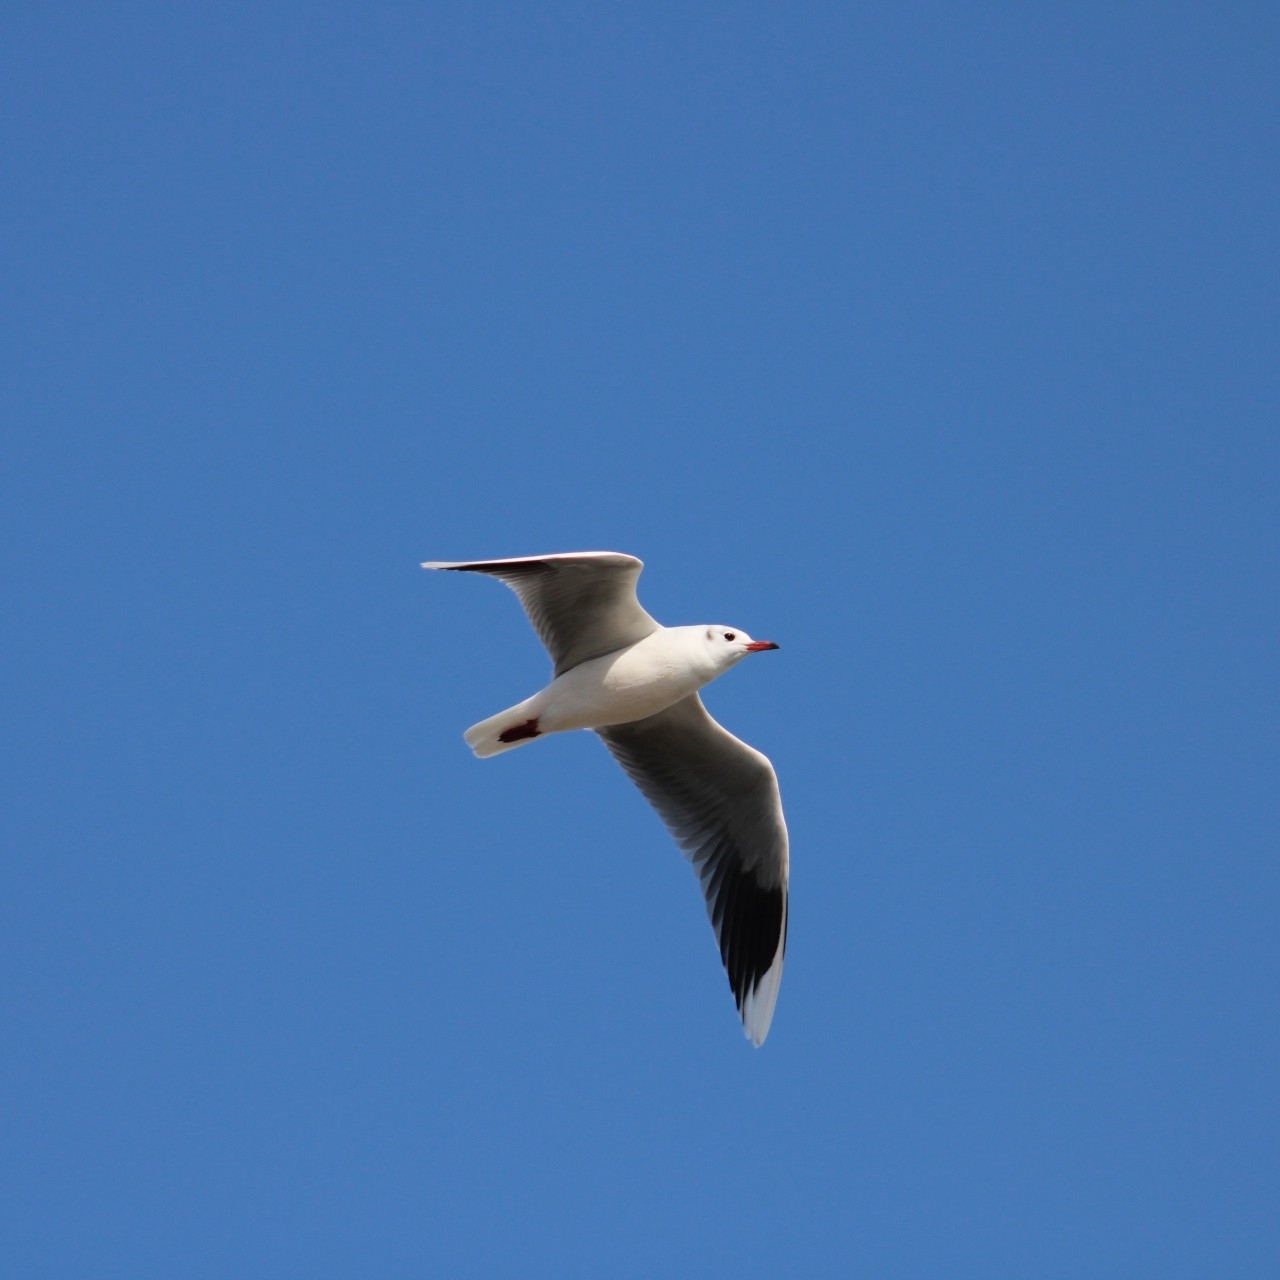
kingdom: Animalia
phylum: Chordata
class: Aves
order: Charadriiformes
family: Laridae
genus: Chroicocephalus
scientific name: Chroicocephalus maculipennis
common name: Brown-hooded gull
